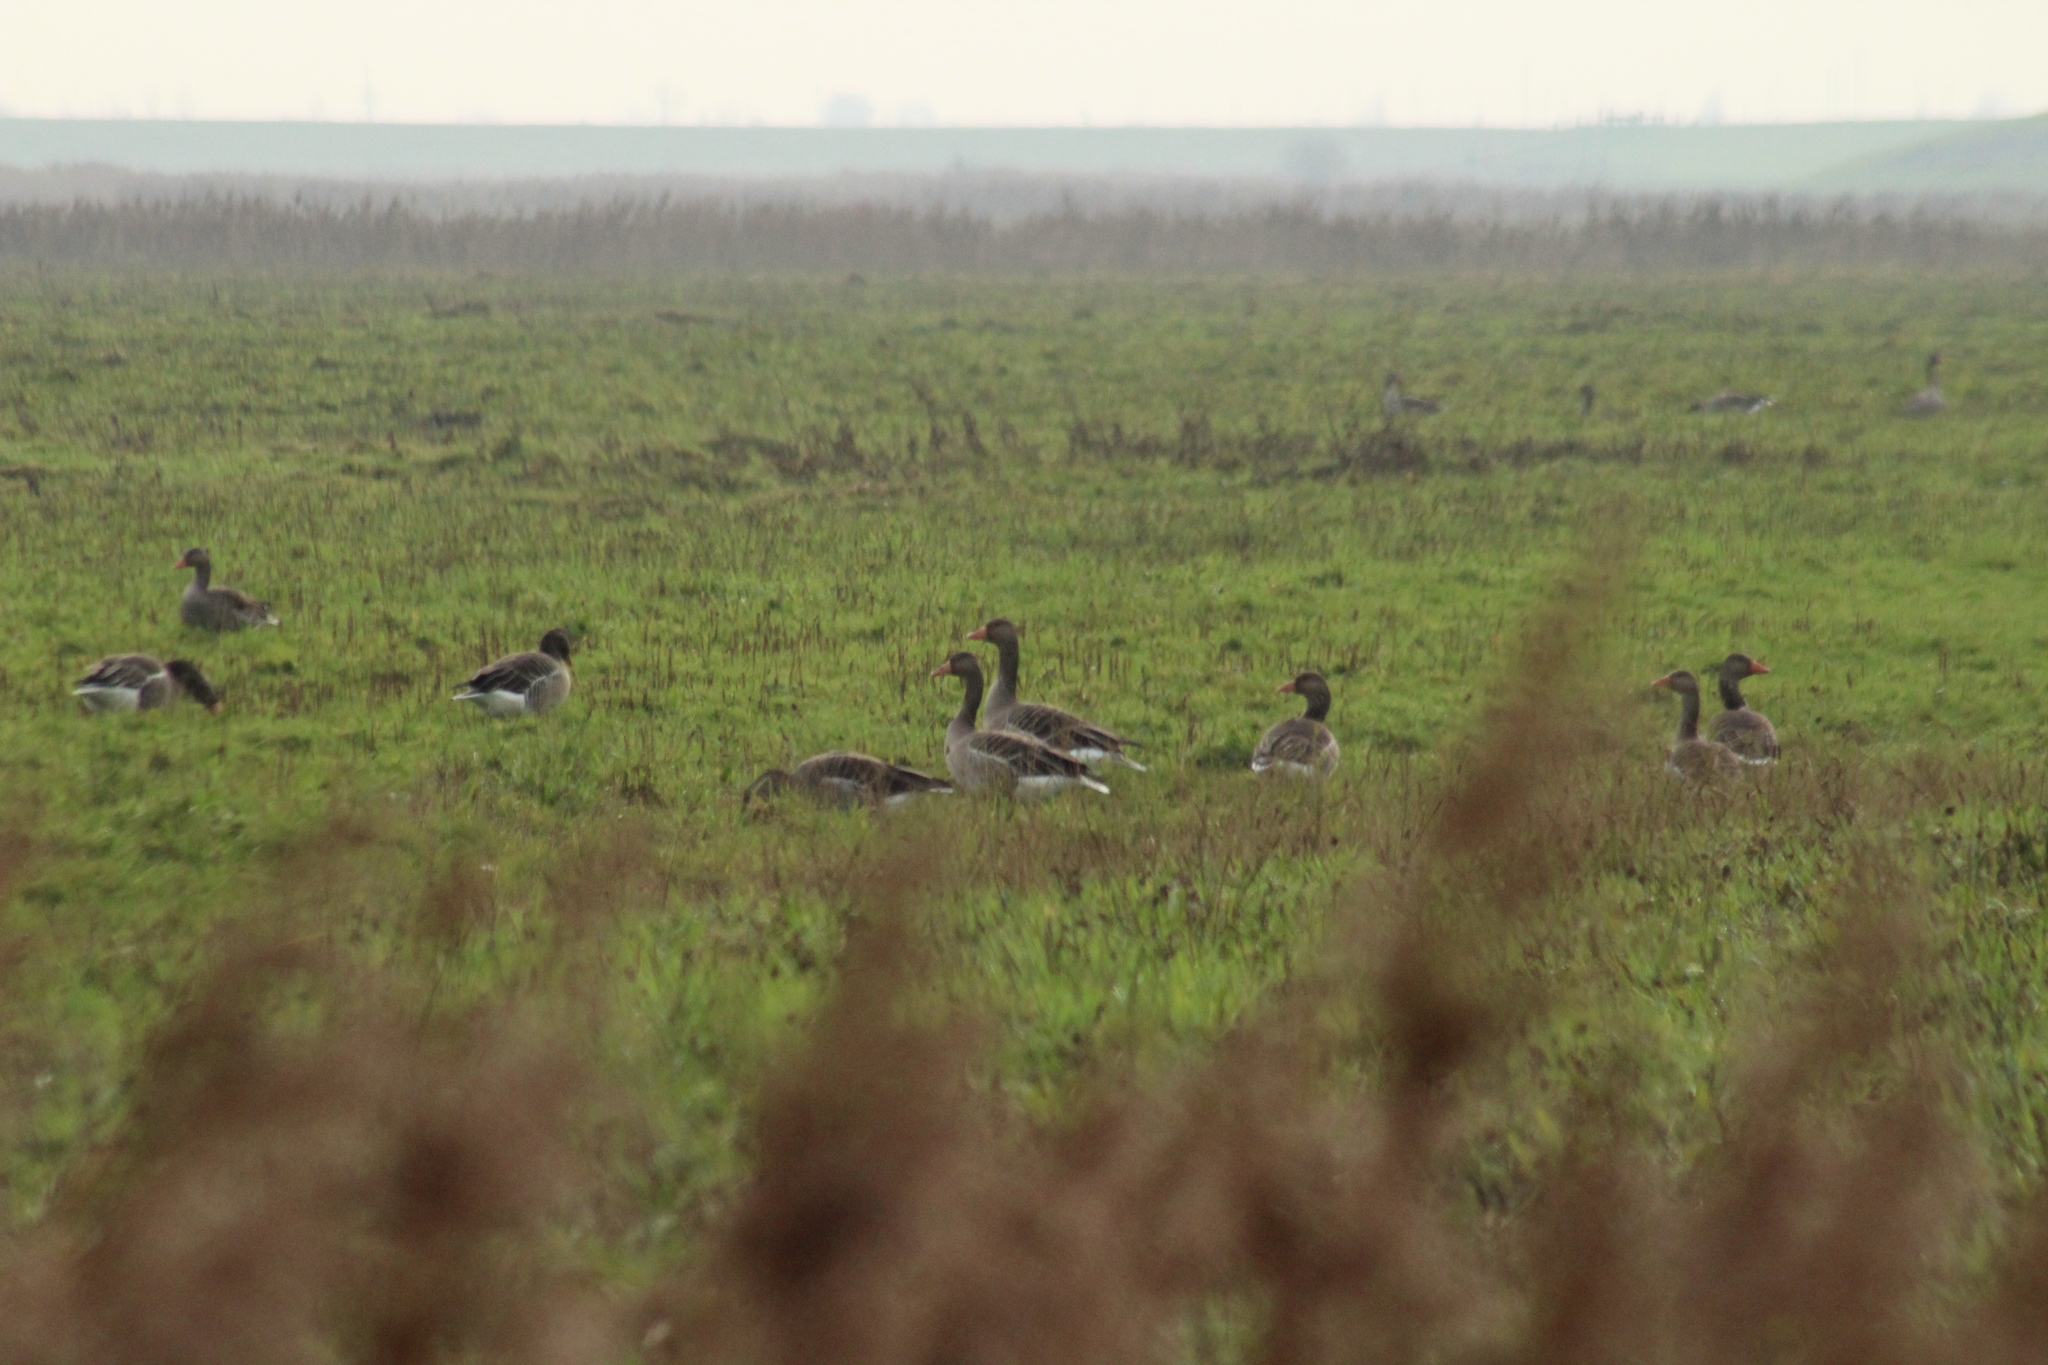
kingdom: Animalia
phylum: Chordata
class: Aves
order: Anseriformes
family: Anatidae
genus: Anser
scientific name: Anser anser
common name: Greylag goose
